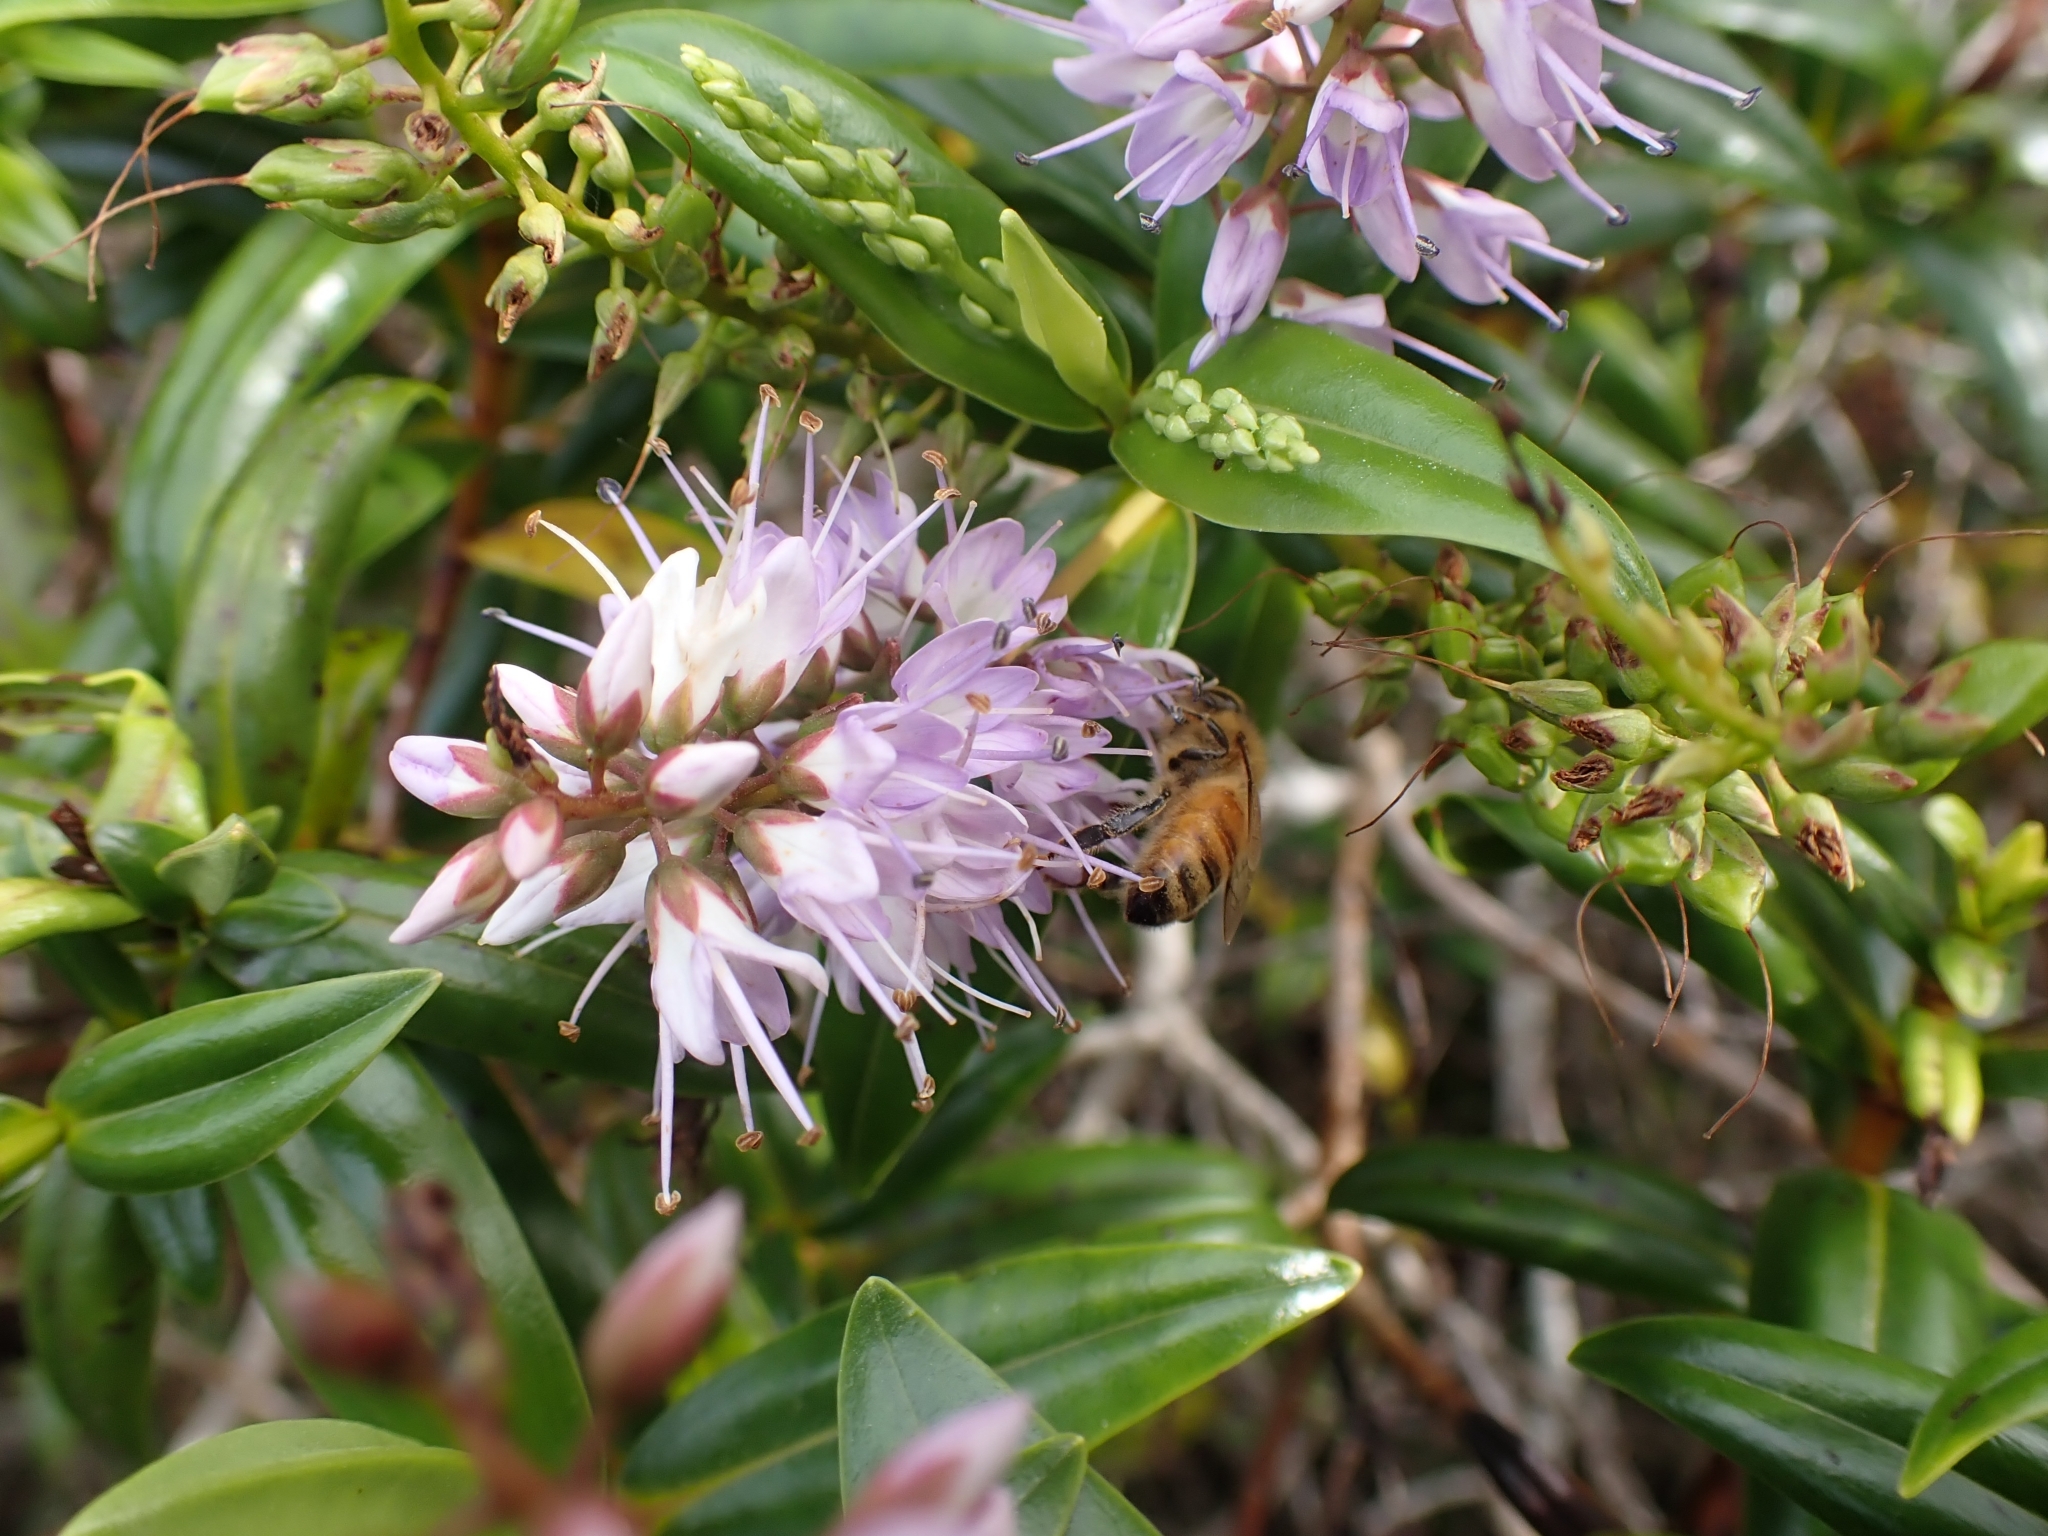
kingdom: Animalia
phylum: Arthropoda
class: Insecta
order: Hymenoptera
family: Apidae
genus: Apis
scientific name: Apis mellifera
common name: Honey bee
